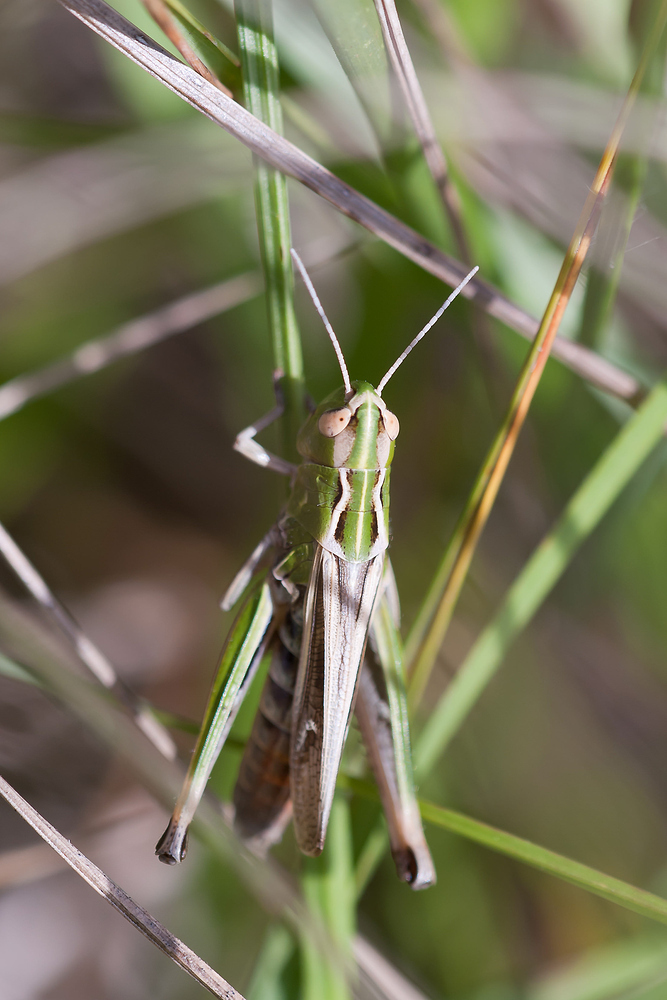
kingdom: Animalia
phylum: Arthropoda
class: Insecta
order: Orthoptera
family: Acrididae
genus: Stenobothrus
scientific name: Stenobothrus lineatus
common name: Stripe-winged grasshopper
